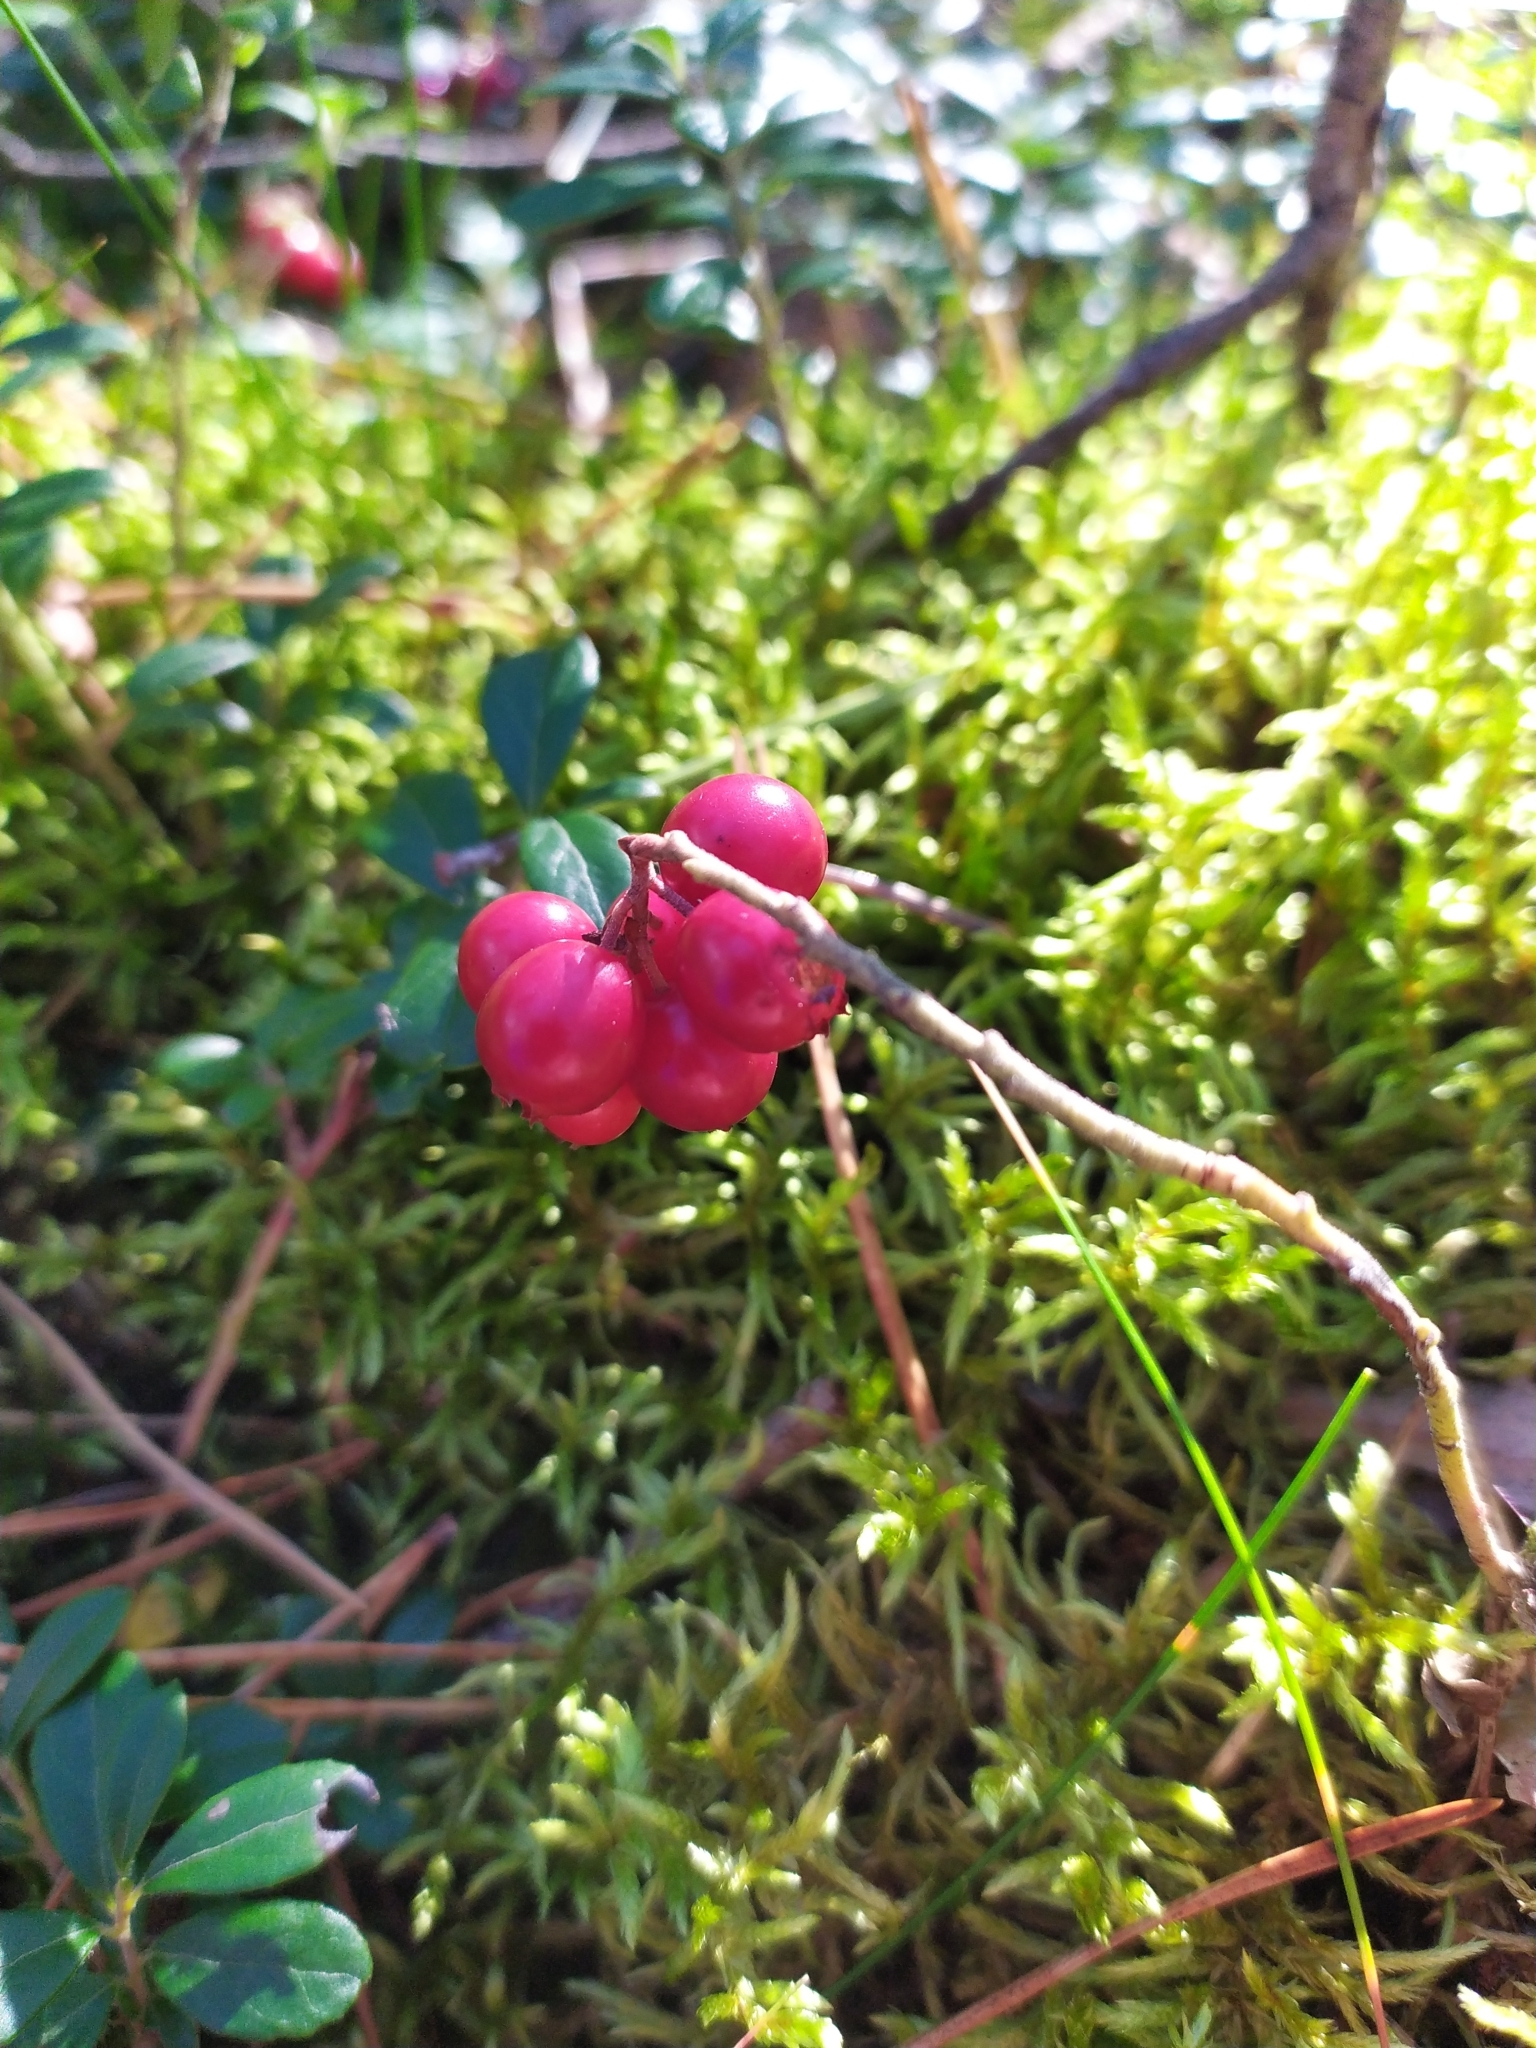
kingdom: Plantae
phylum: Tracheophyta
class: Magnoliopsida
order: Ericales
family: Ericaceae
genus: Vaccinium
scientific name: Vaccinium vitis-idaea
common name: Cowberry
